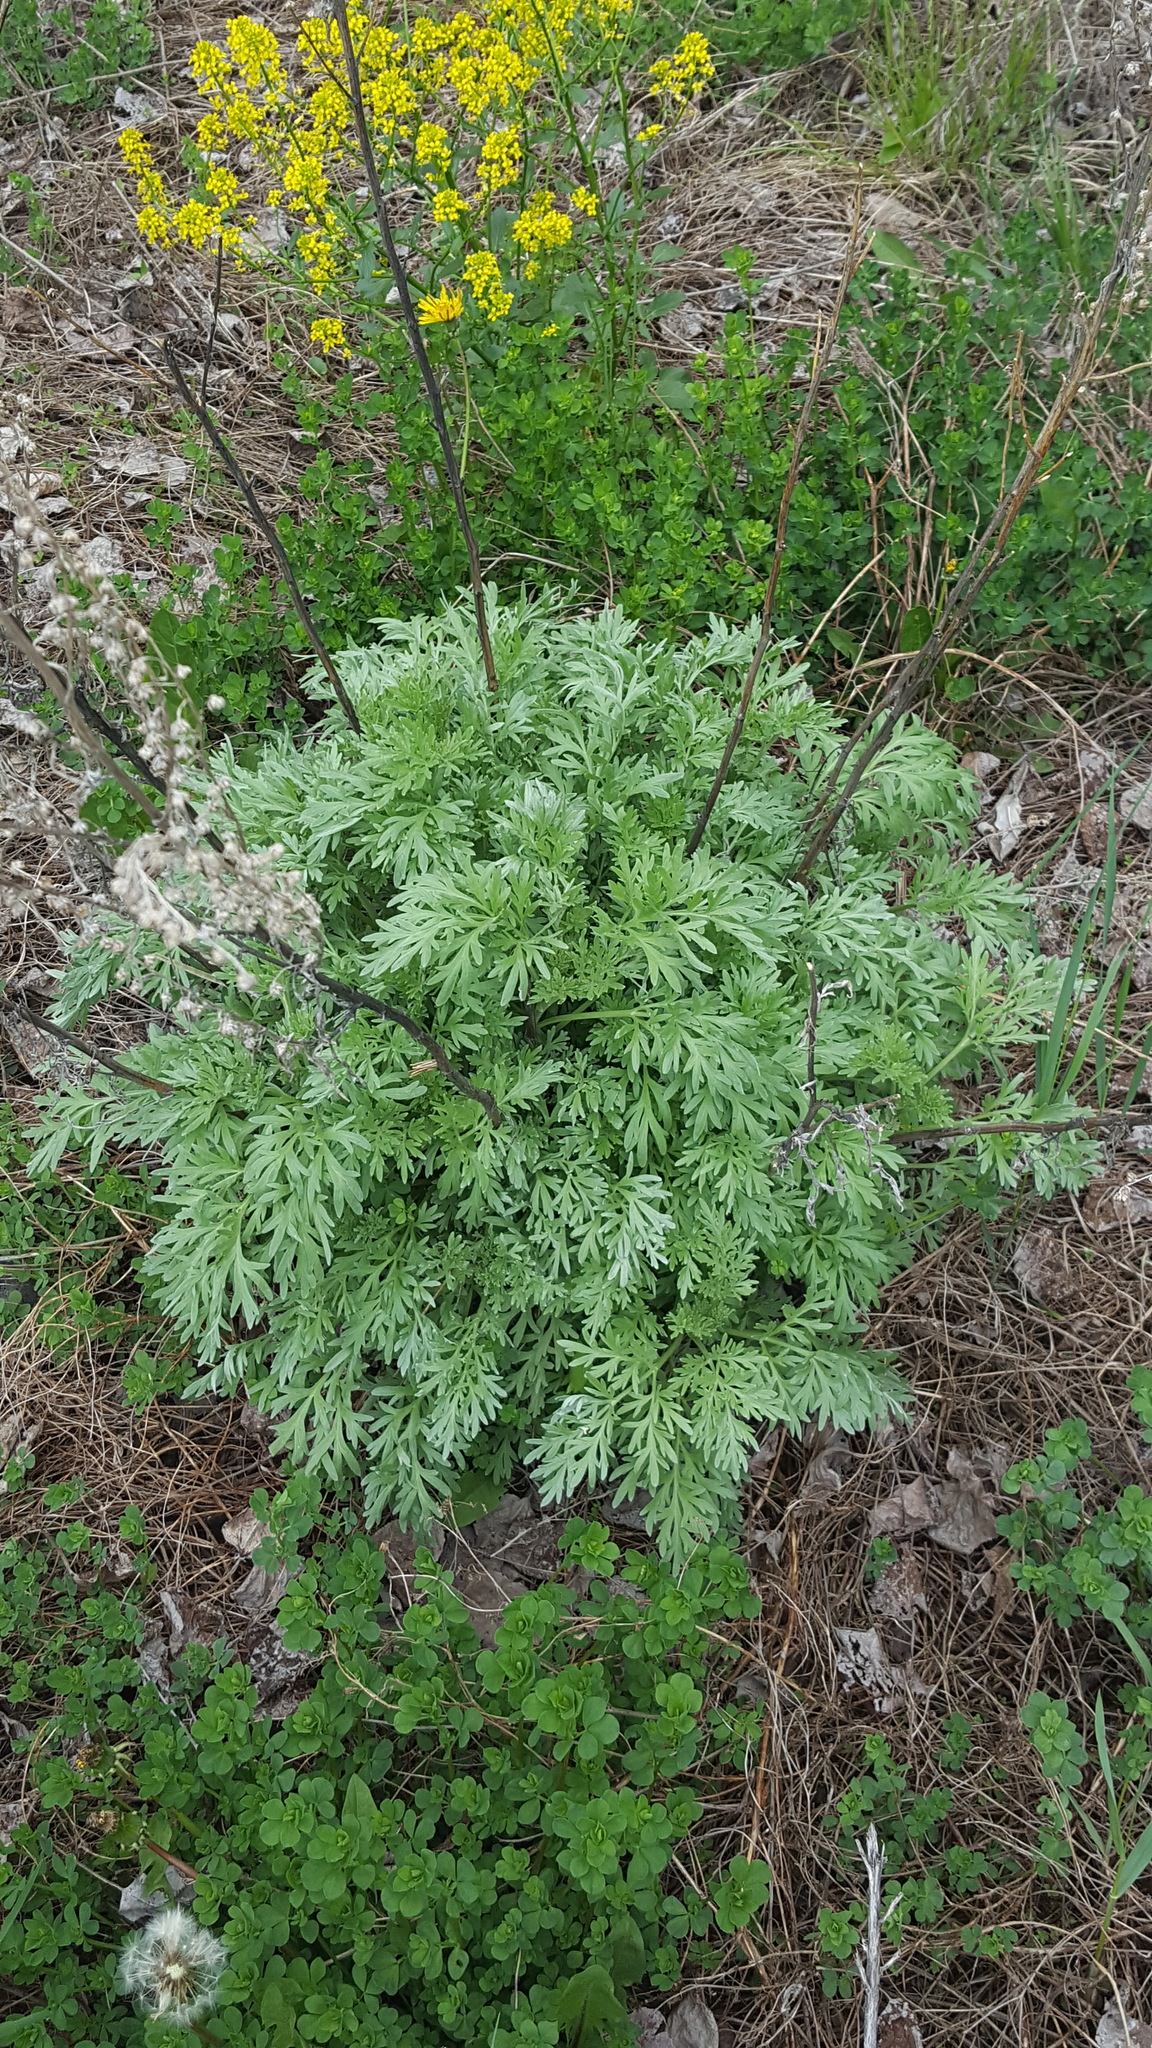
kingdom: Plantae
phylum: Tracheophyta
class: Magnoliopsida
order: Asterales
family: Asteraceae
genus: Artemisia
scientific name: Artemisia absinthium
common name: Wormwood
